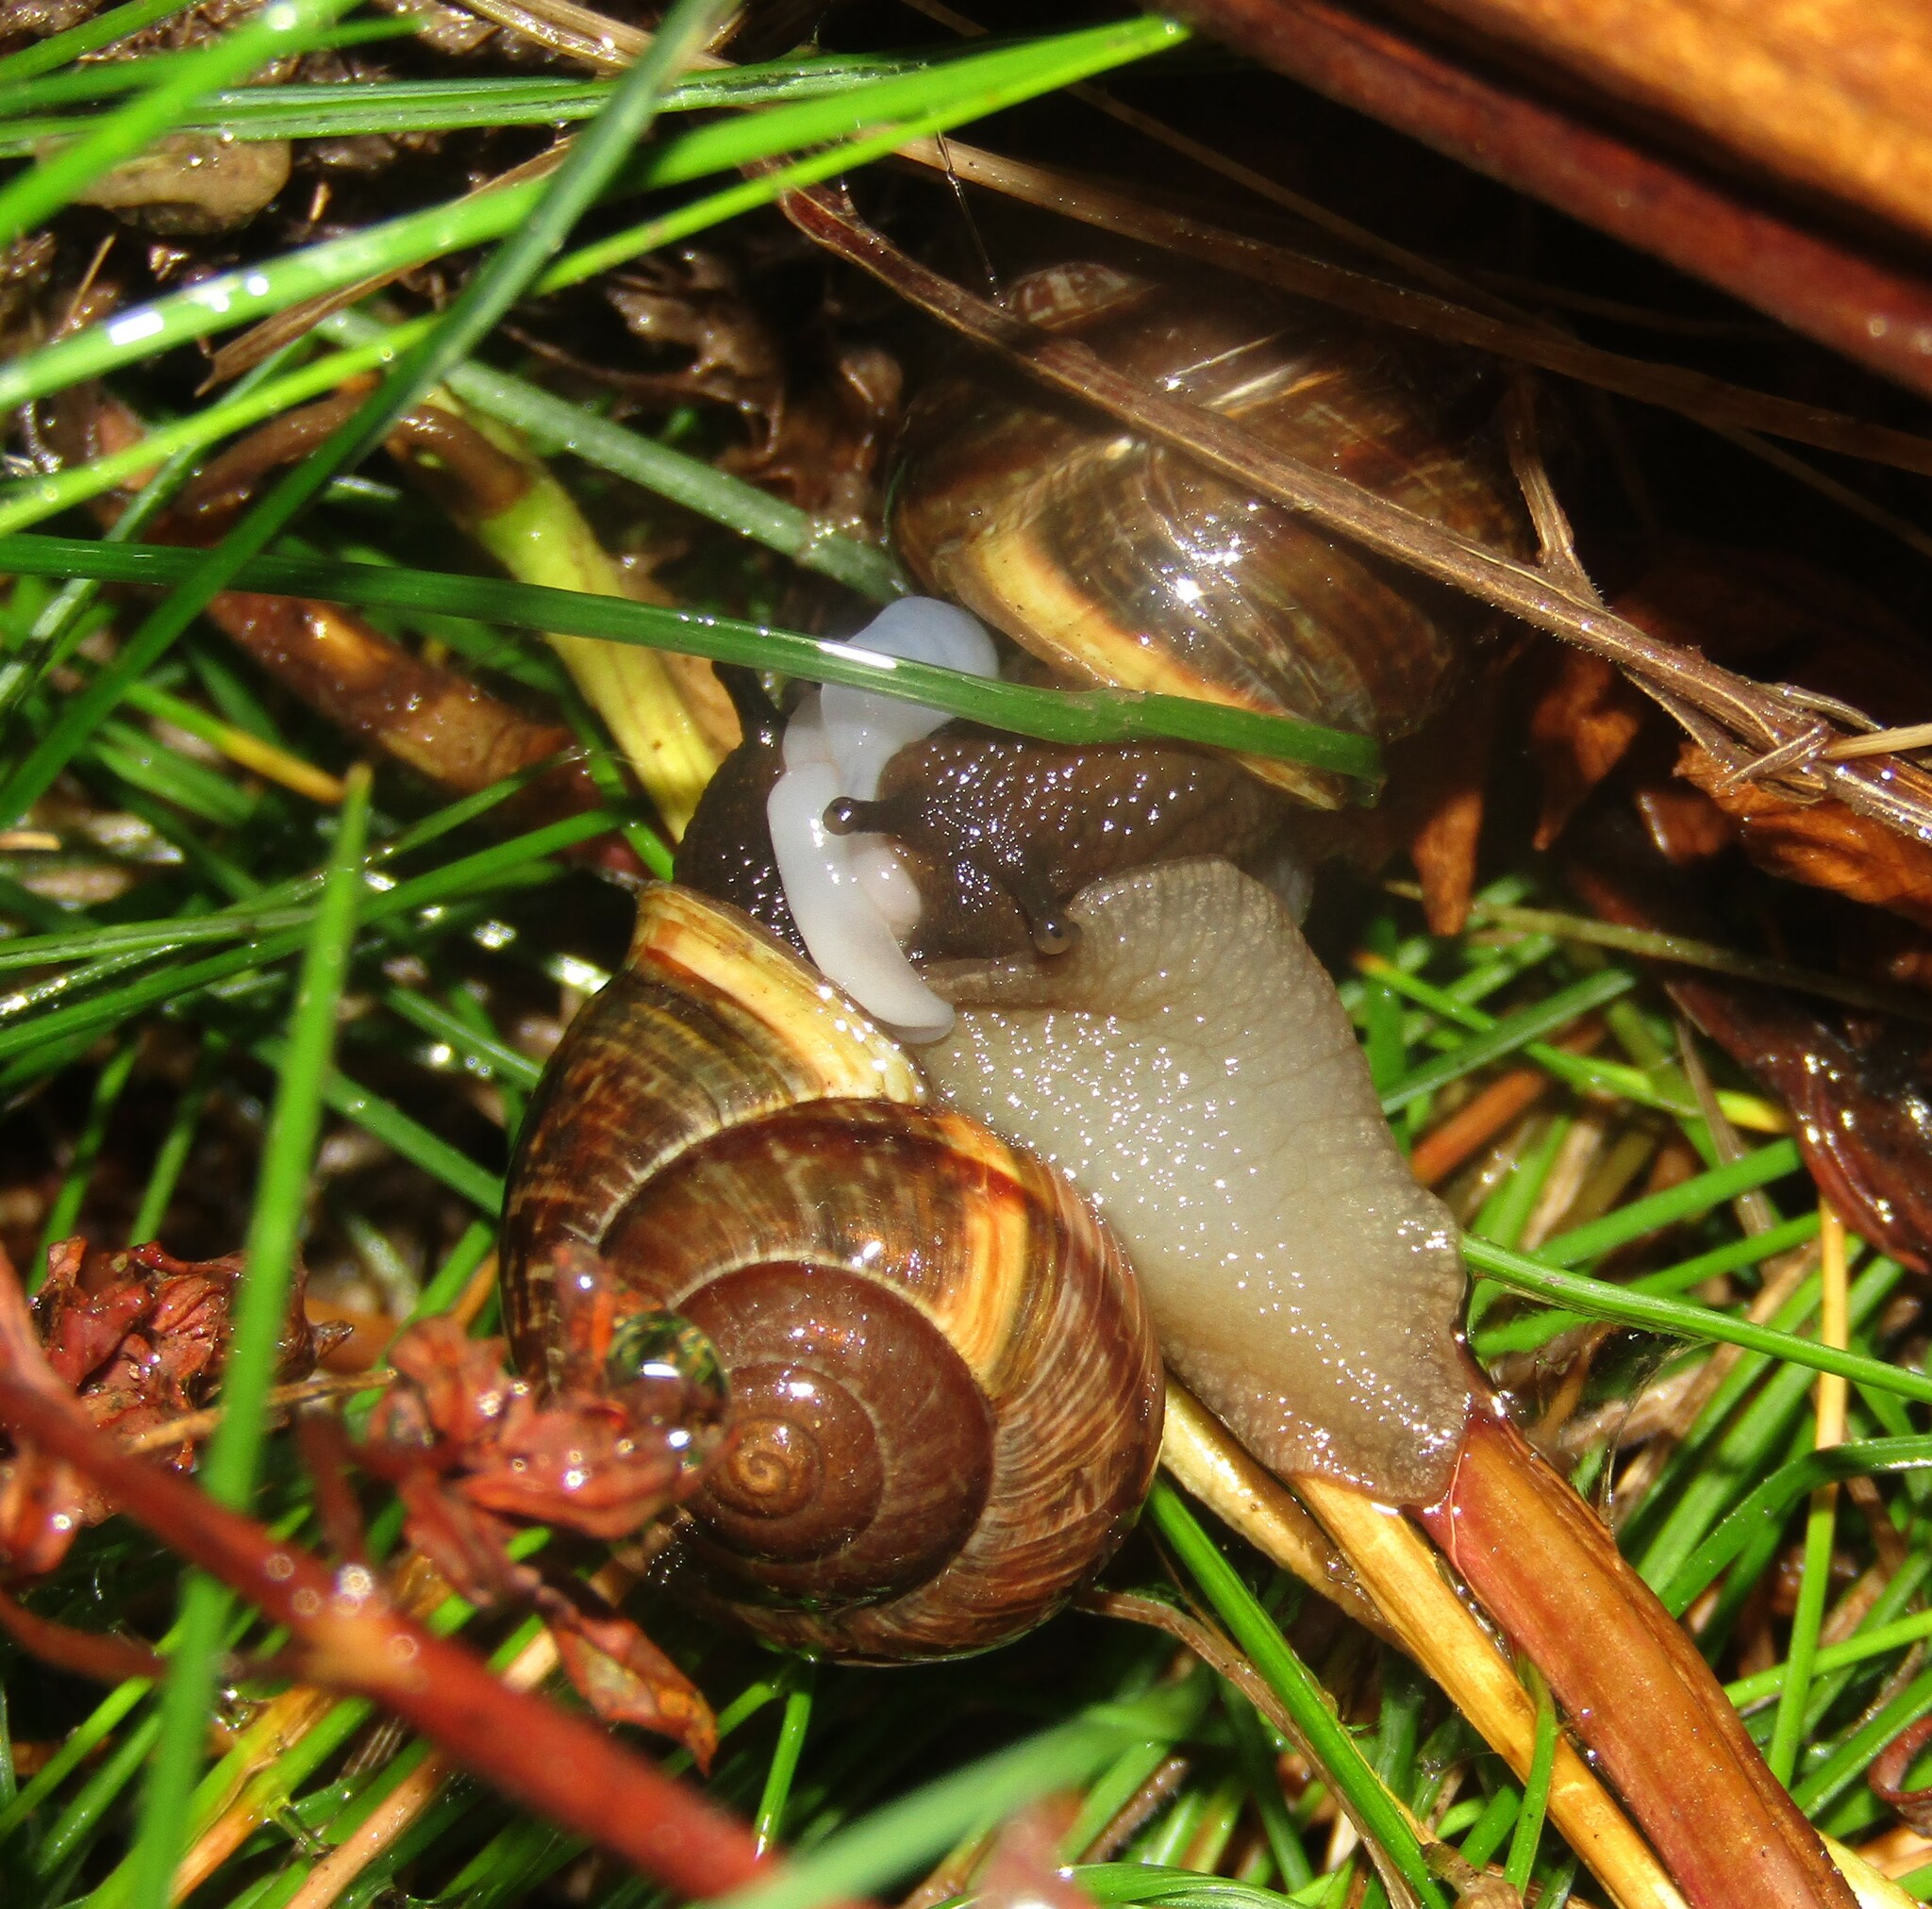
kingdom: Animalia
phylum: Mollusca
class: Gastropoda
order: Stylommatophora
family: Helicidae
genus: Arianta
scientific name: Arianta arbustorum
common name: Copse snail
